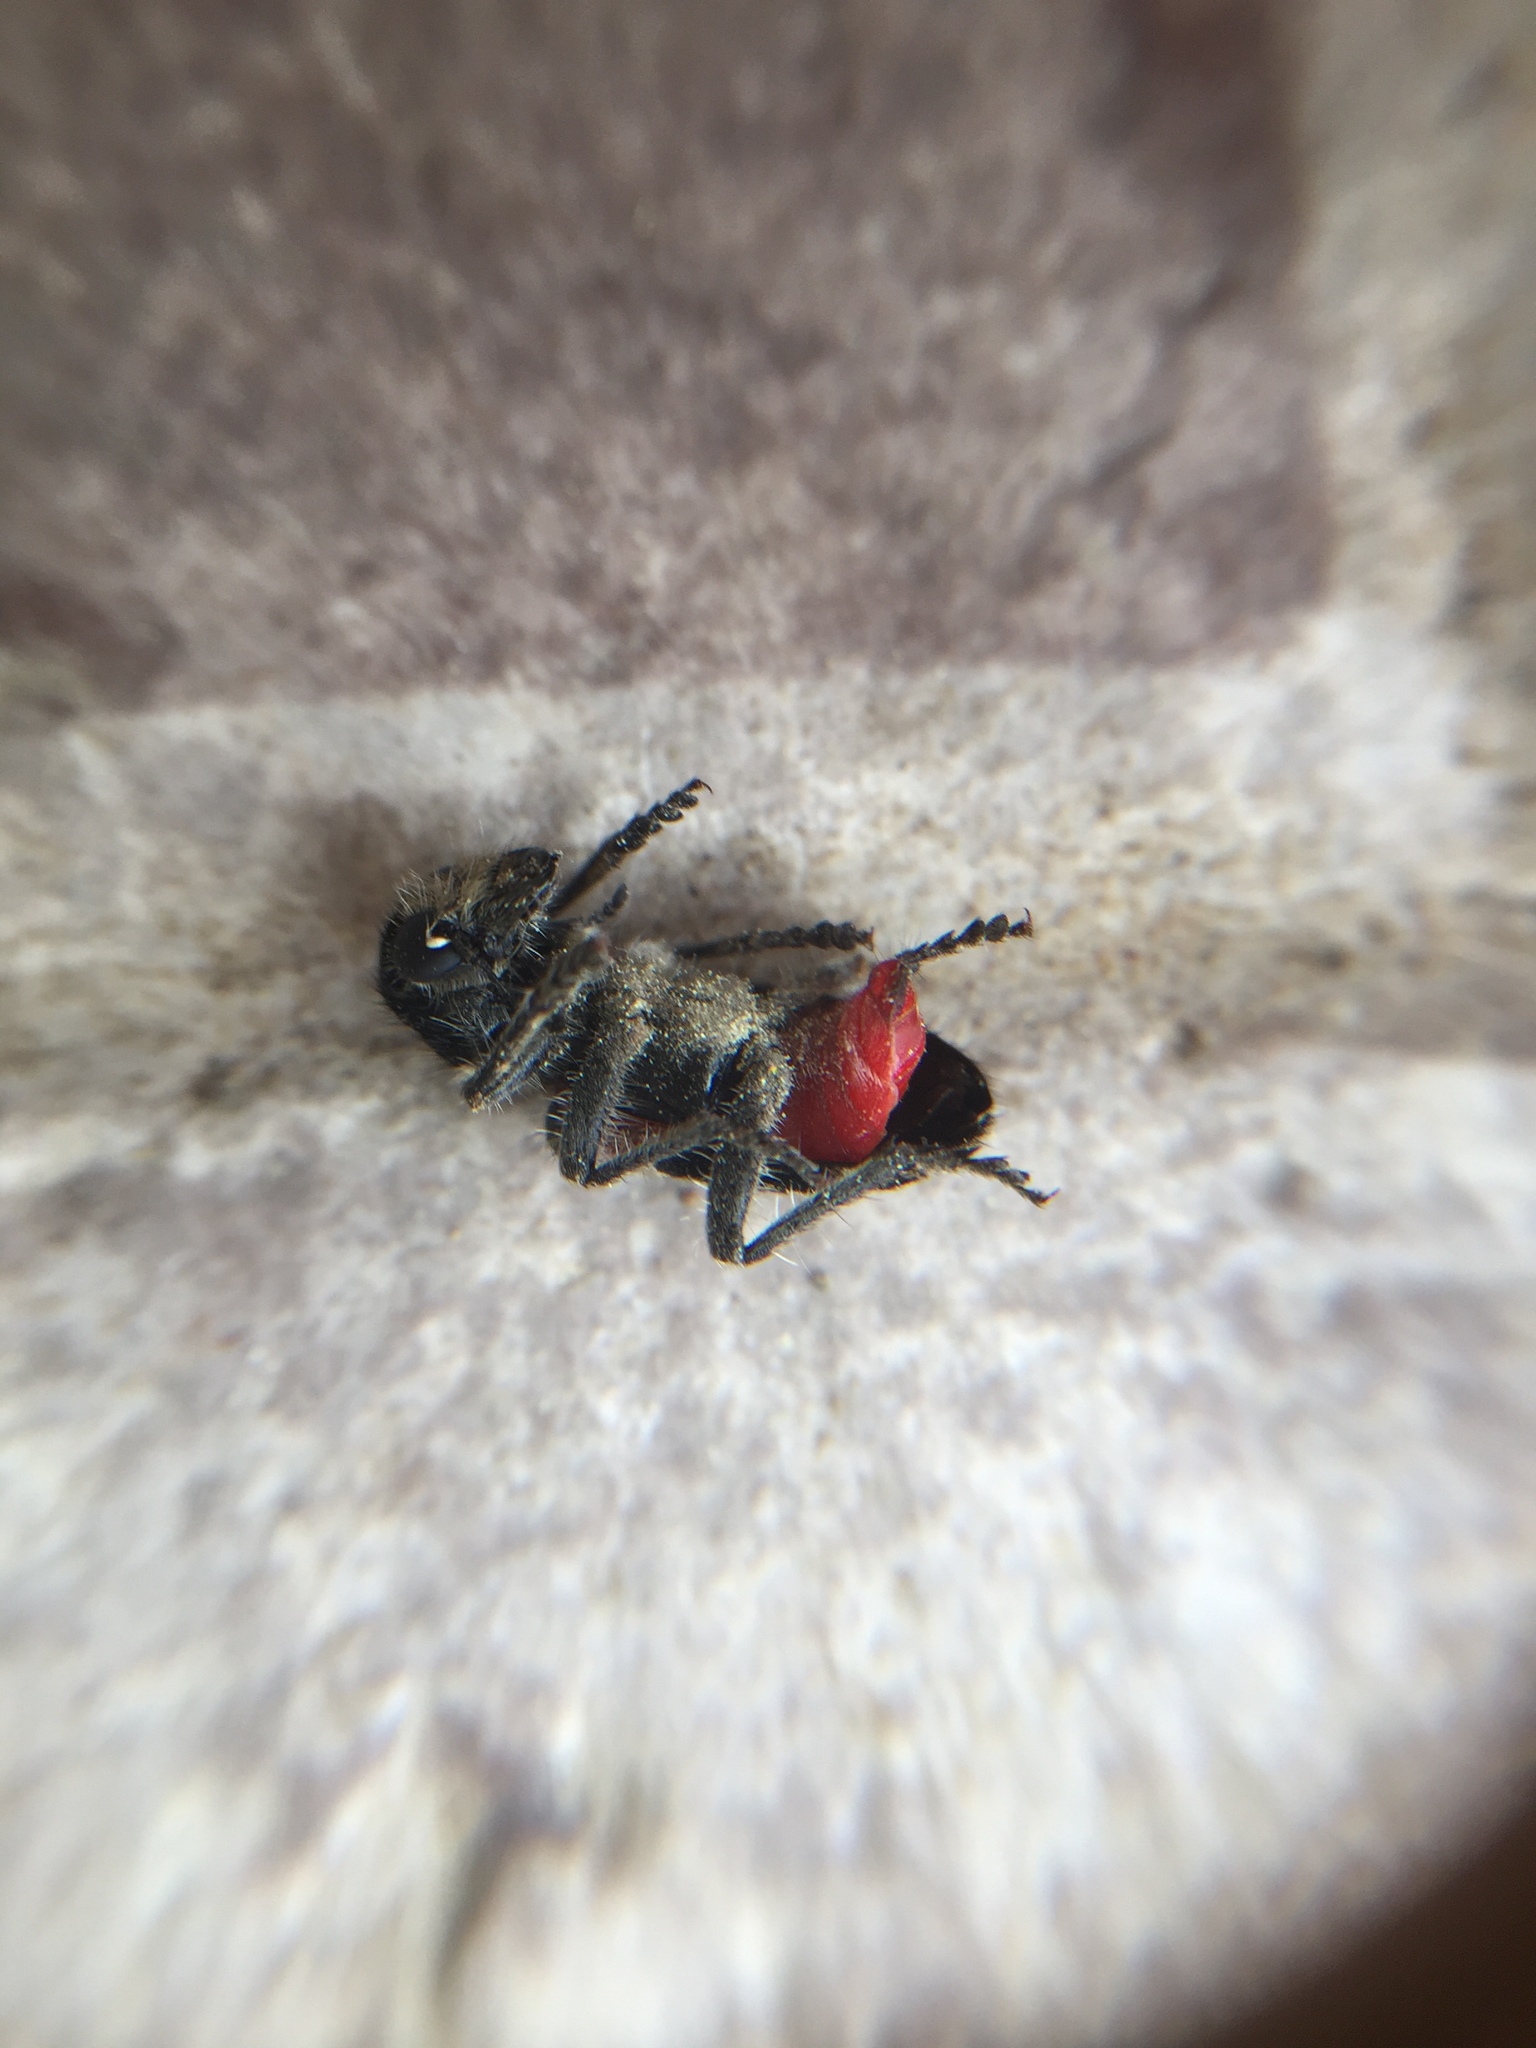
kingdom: Animalia
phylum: Arthropoda
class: Insecta
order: Coleoptera
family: Cleridae
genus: Clerus
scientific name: Clerus mutillarius
